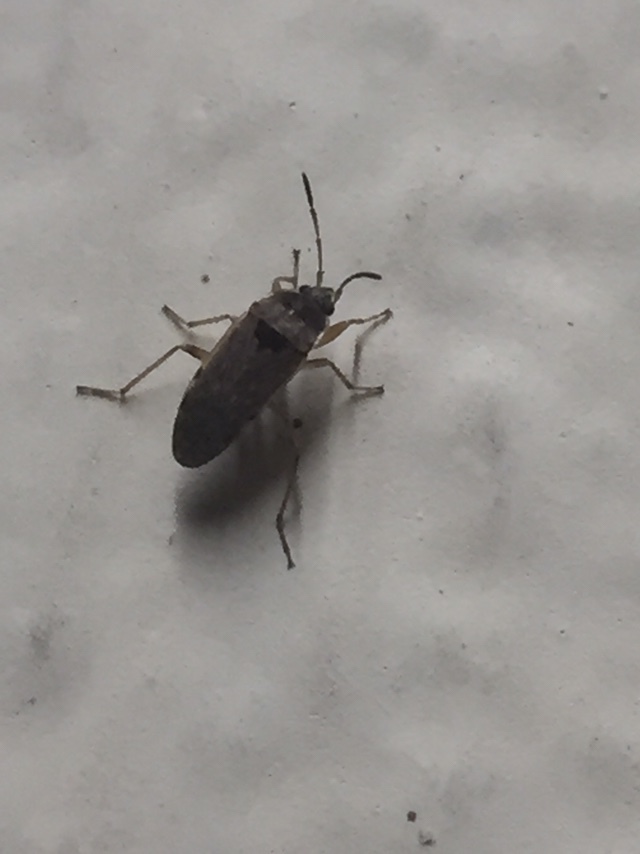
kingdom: Animalia
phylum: Arthropoda
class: Insecta
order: Hemiptera
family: Rhyparochromidae
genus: Elasmolomus
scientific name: Elasmolomus pallens
